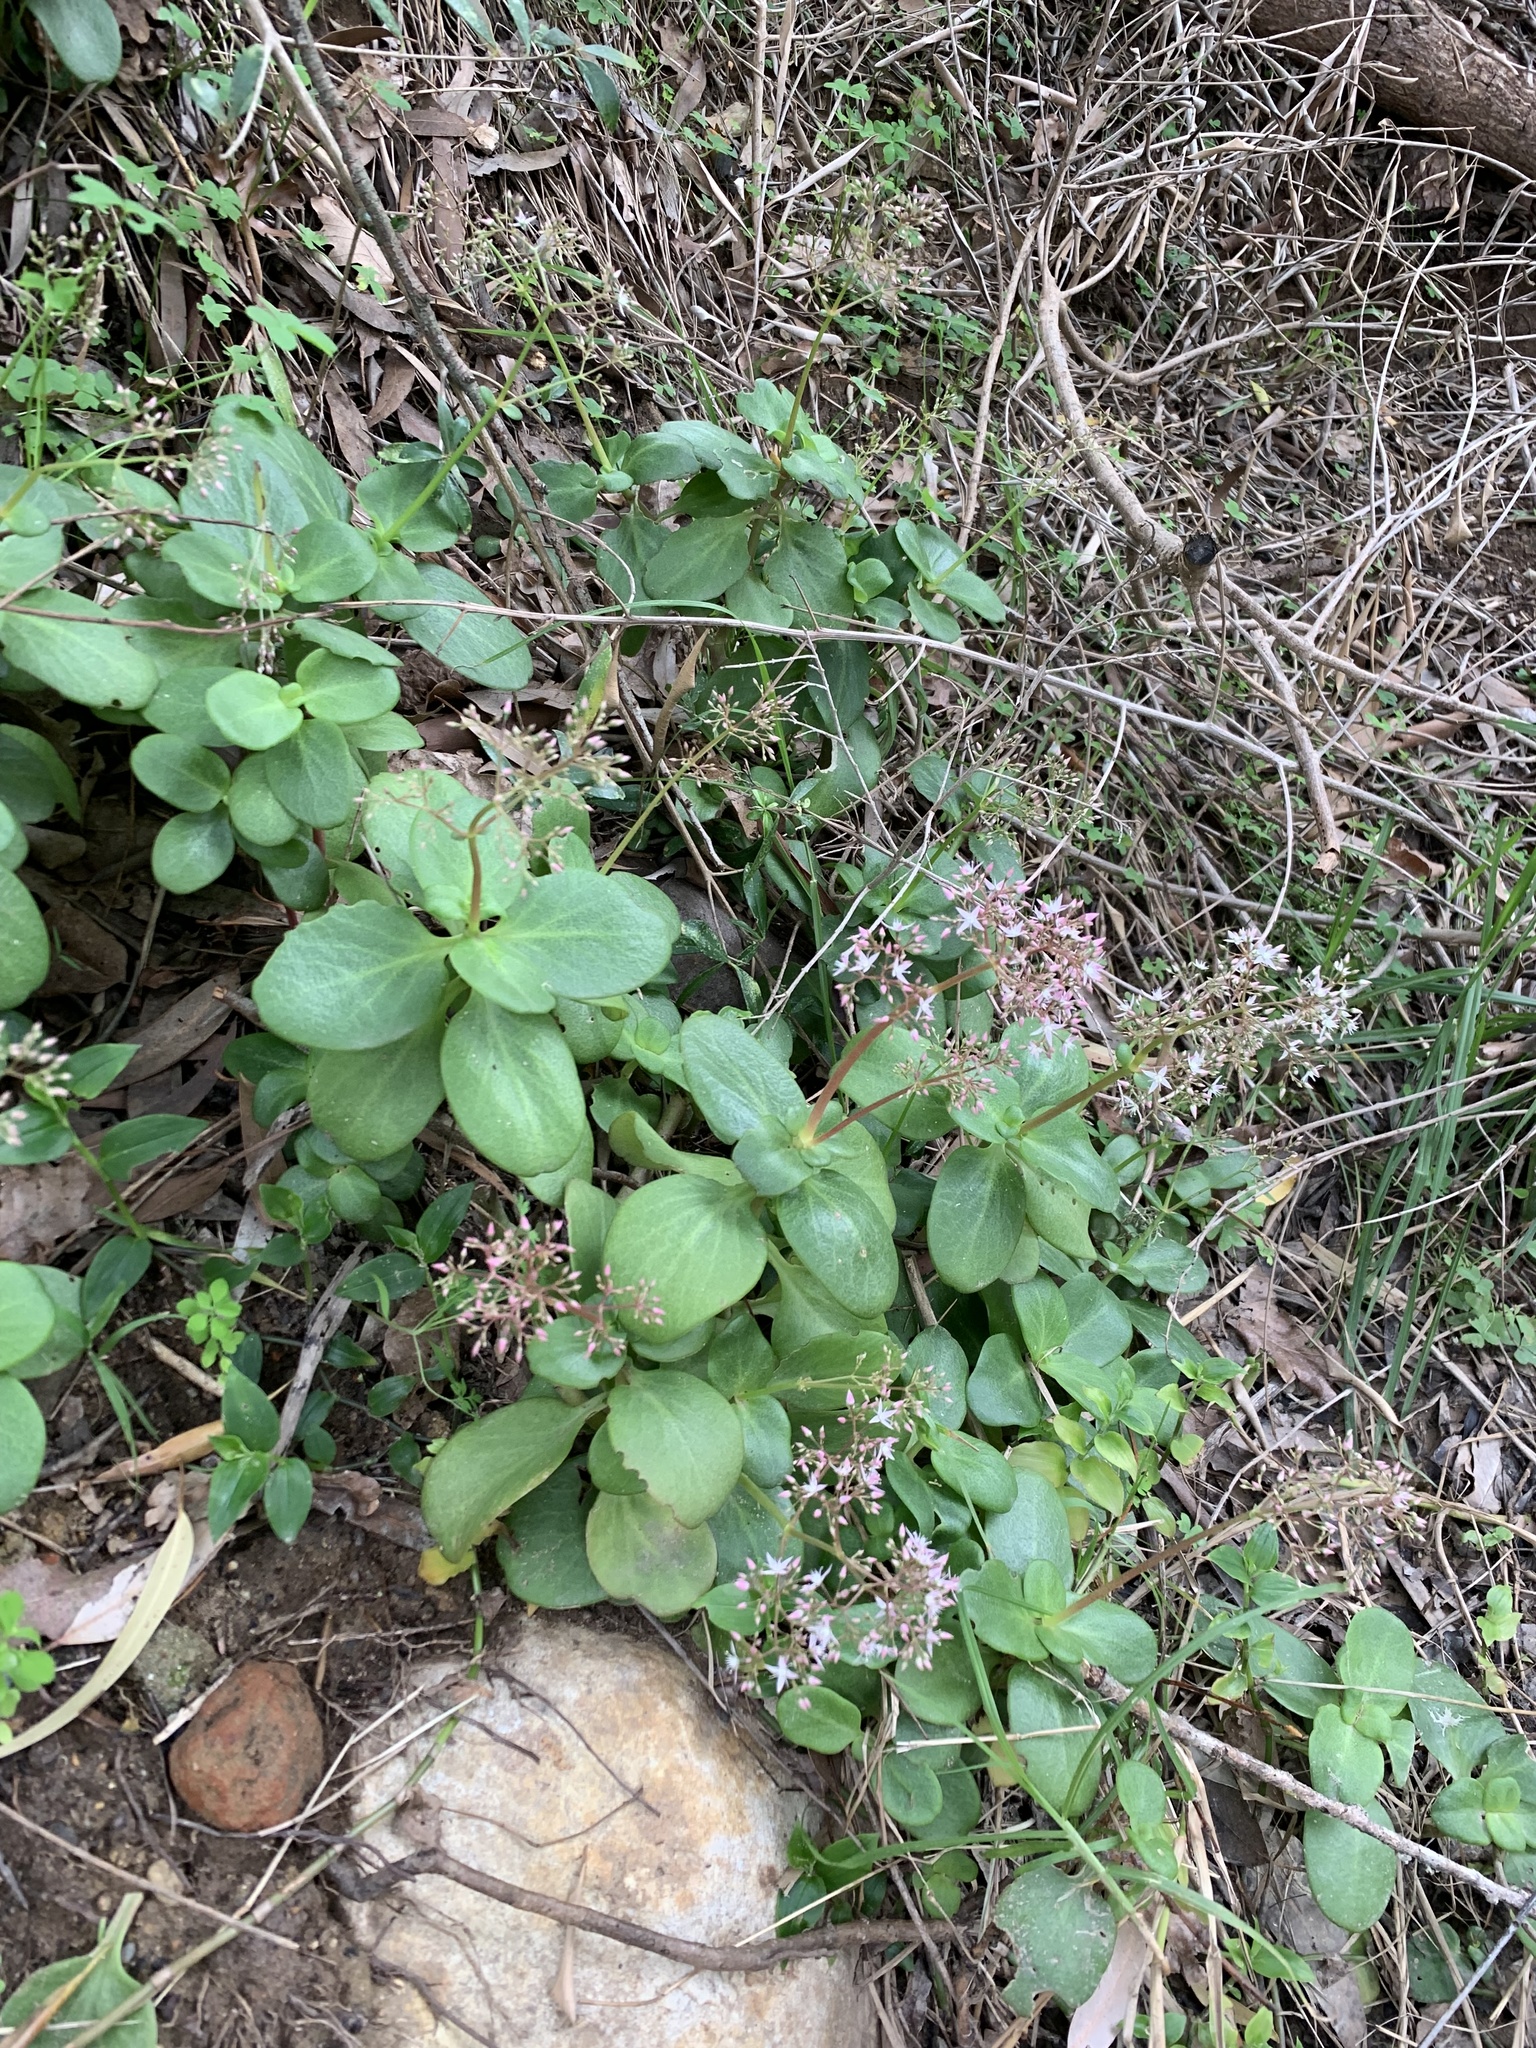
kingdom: Plantae
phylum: Tracheophyta
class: Magnoliopsida
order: Saxifragales
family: Crassulaceae
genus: Crassula
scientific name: Crassula multicava
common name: Cape province pygmyweed
